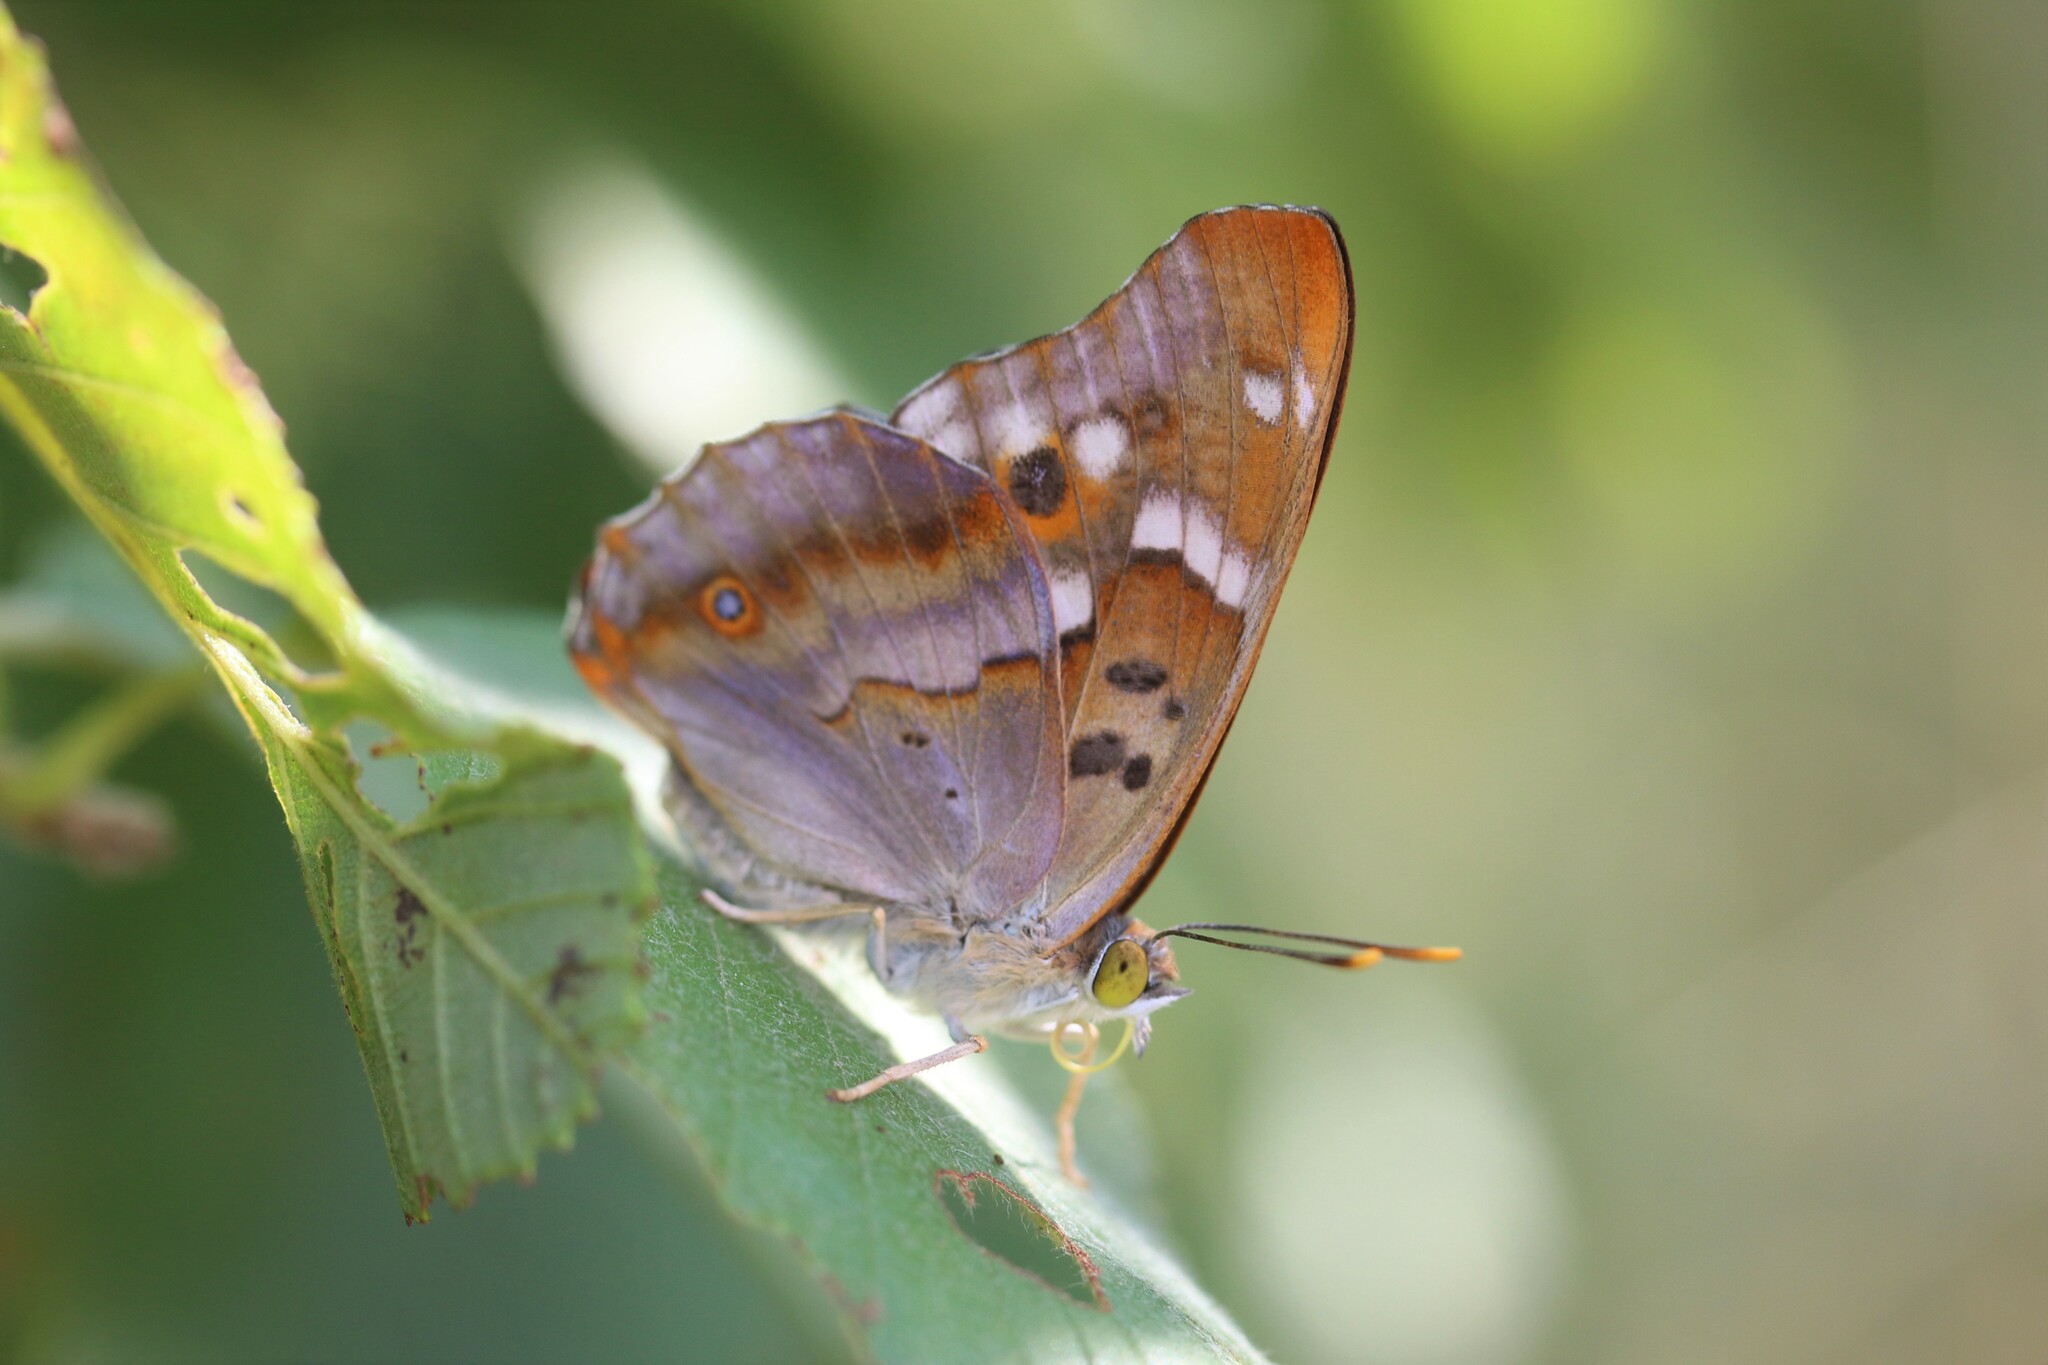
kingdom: Animalia
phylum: Arthropoda
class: Insecta
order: Lepidoptera
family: Nymphalidae
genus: Apatura
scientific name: Apatura ilia
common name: Lesser purple emperor
